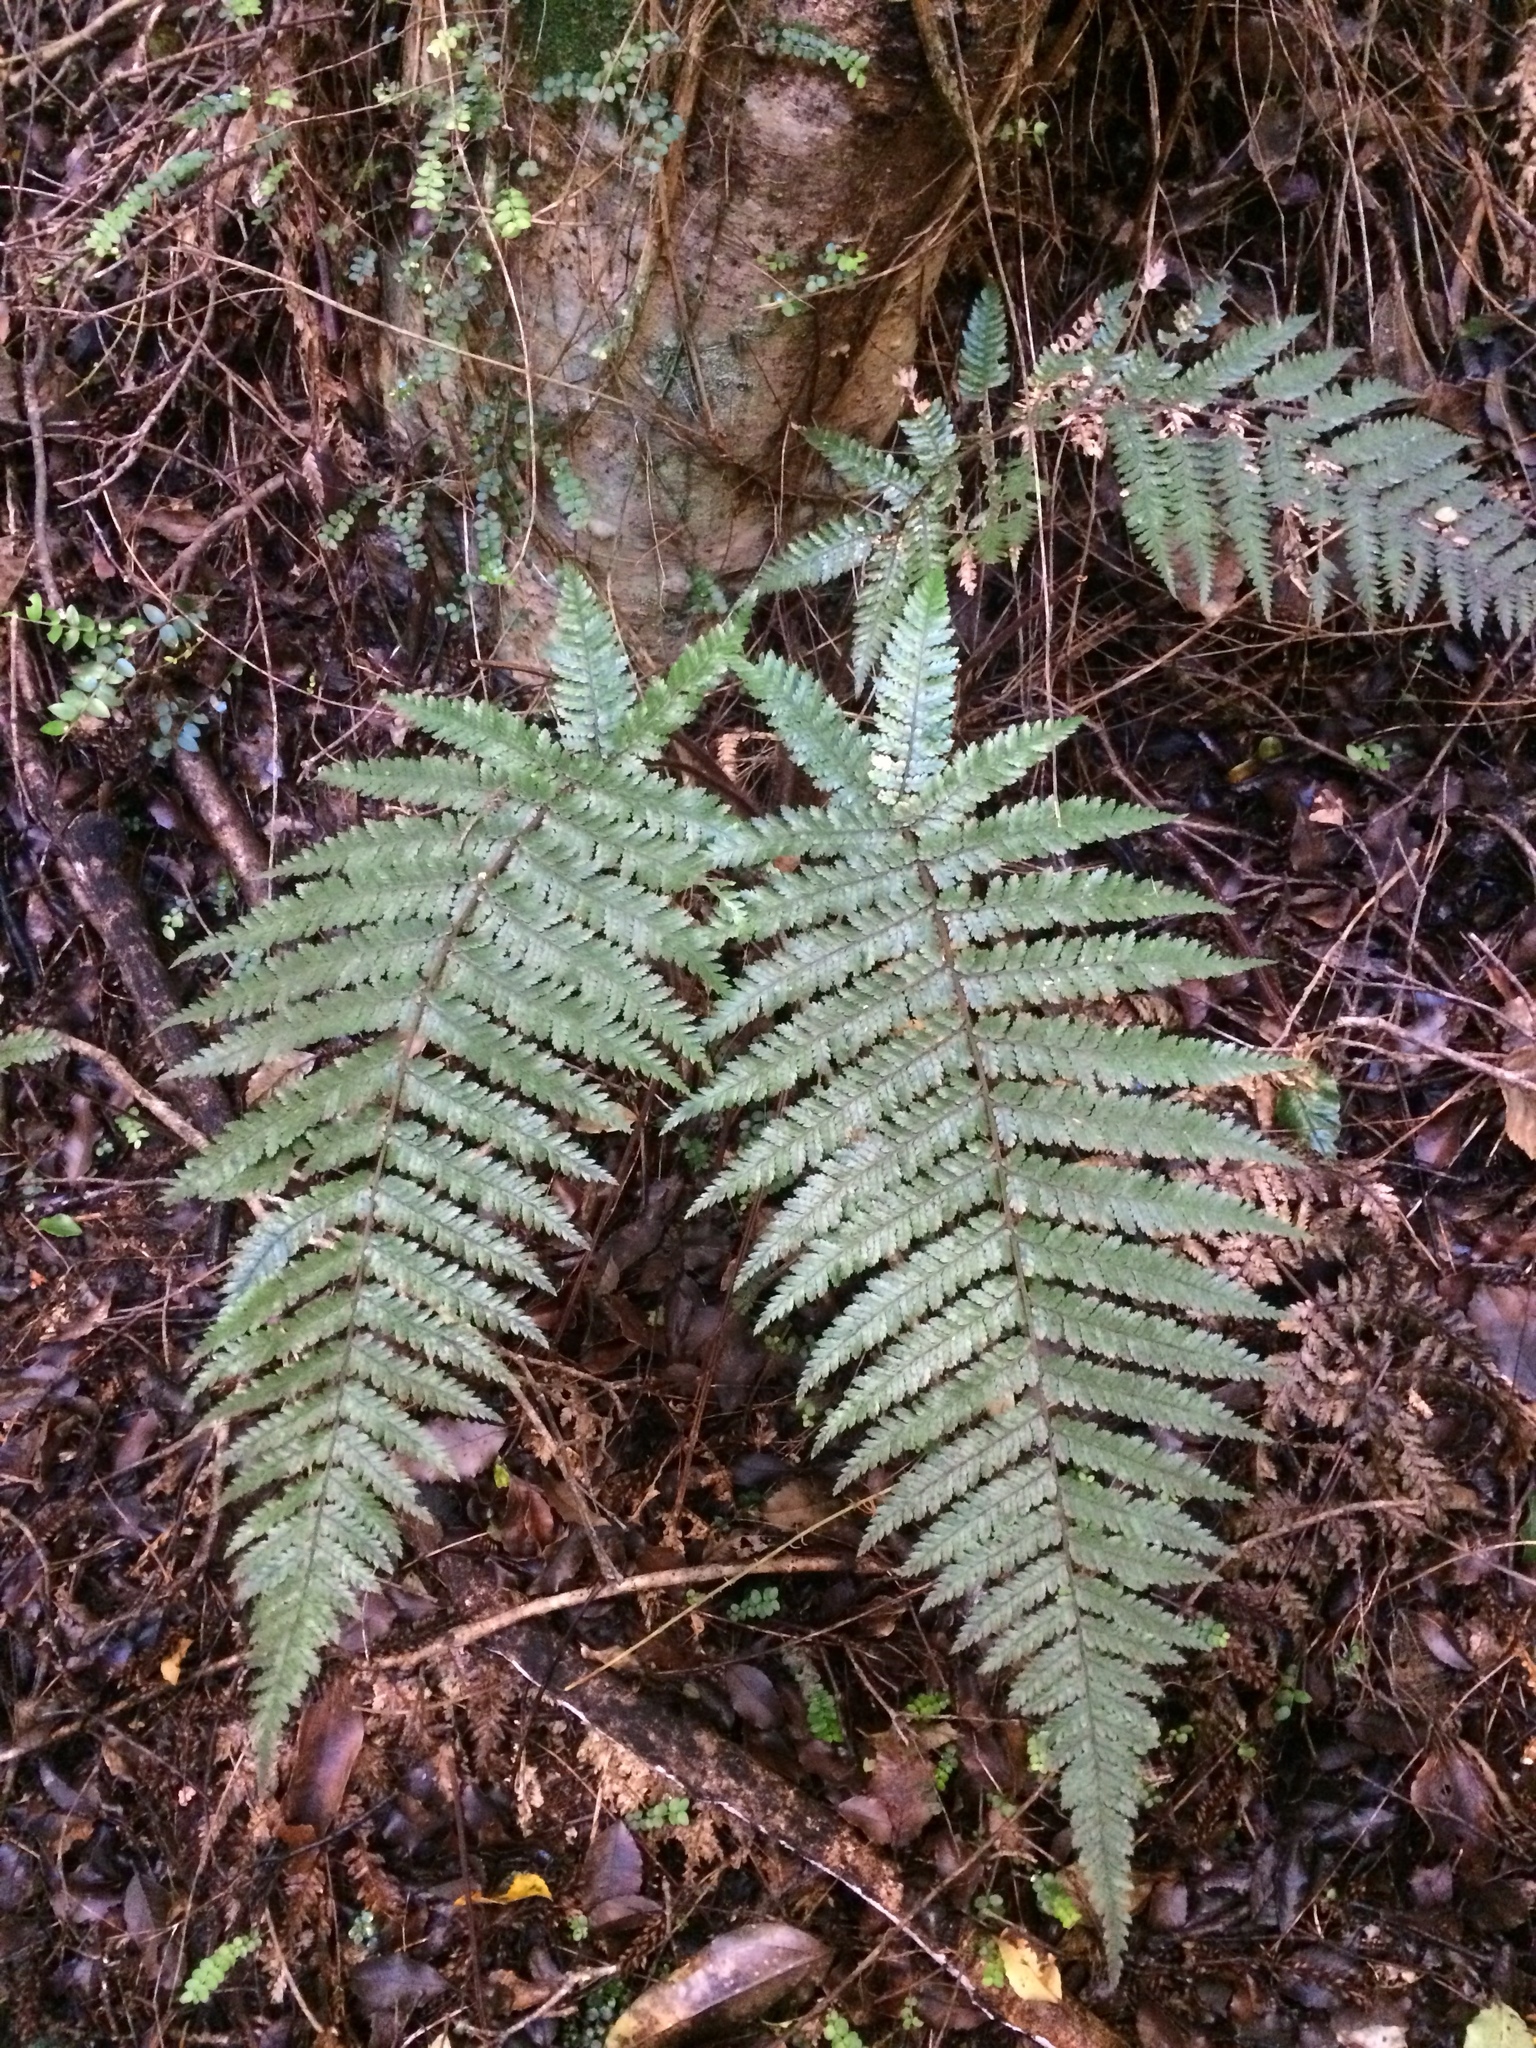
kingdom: Plantae
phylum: Tracheophyta
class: Polypodiopsida
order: Cyatheales
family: Dicksoniaceae
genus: Dicksonia
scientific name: Dicksonia squarrosa
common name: Hard treefern
